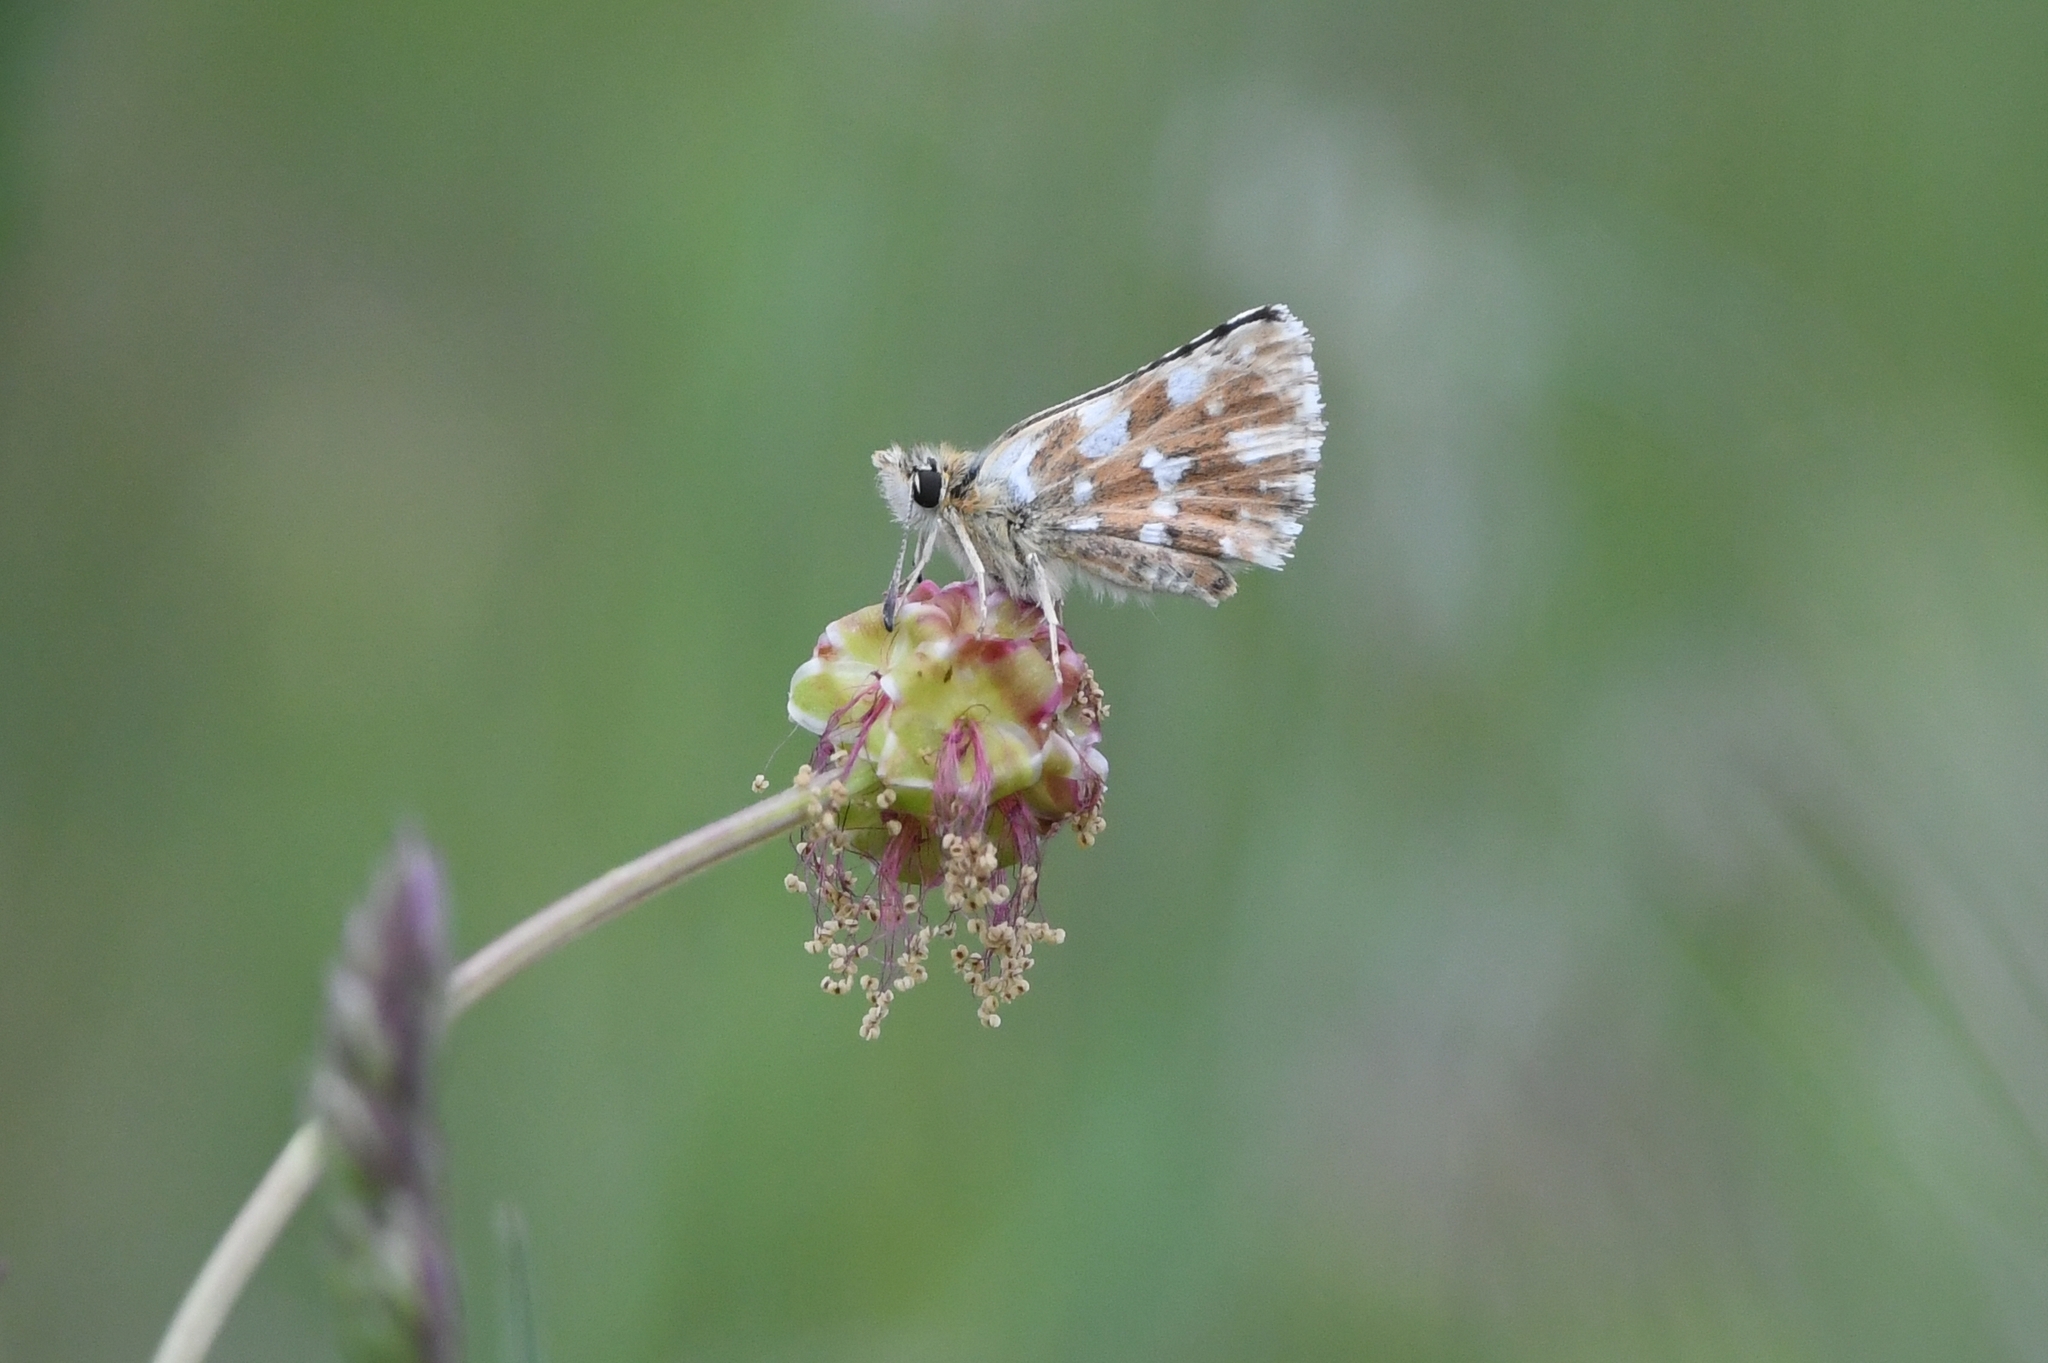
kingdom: Animalia
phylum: Arthropoda
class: Insecta
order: Lepidoptera
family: Hesperiidae
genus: Spialia
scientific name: Spialia sertorius
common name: Red underwing skipper
